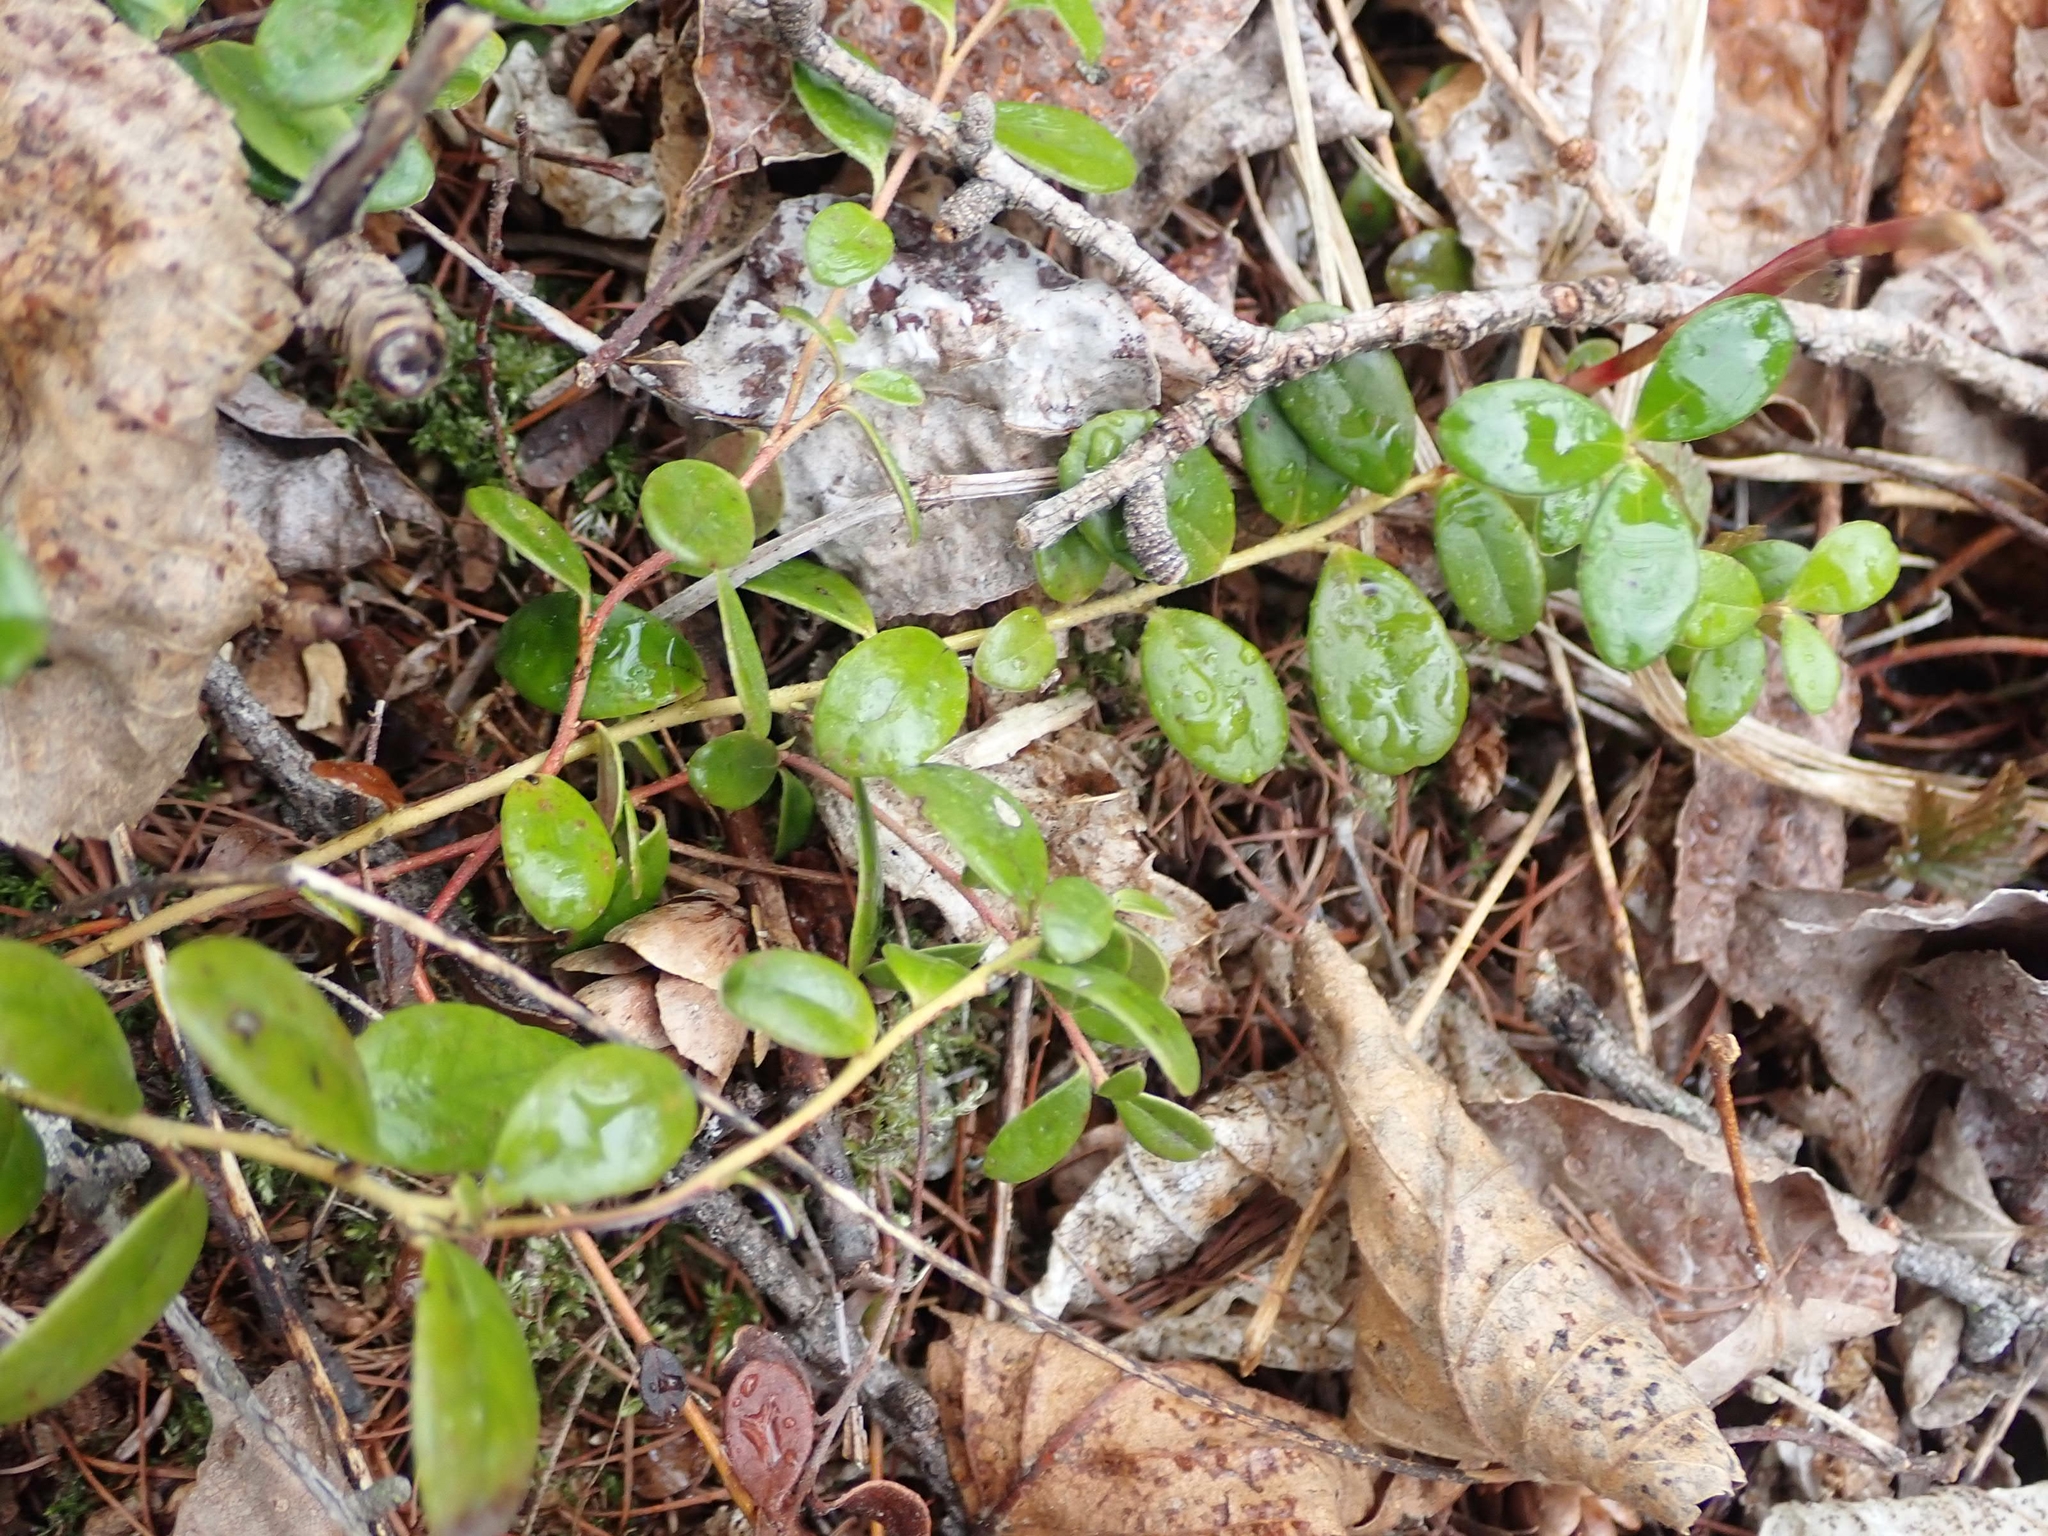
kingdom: Plantae
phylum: Tracheophyta
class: Magnoliopsida
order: Ericales
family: Ericaceae
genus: Gaultheria
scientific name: Gaultheria hispidula
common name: Cancer wintergreen
